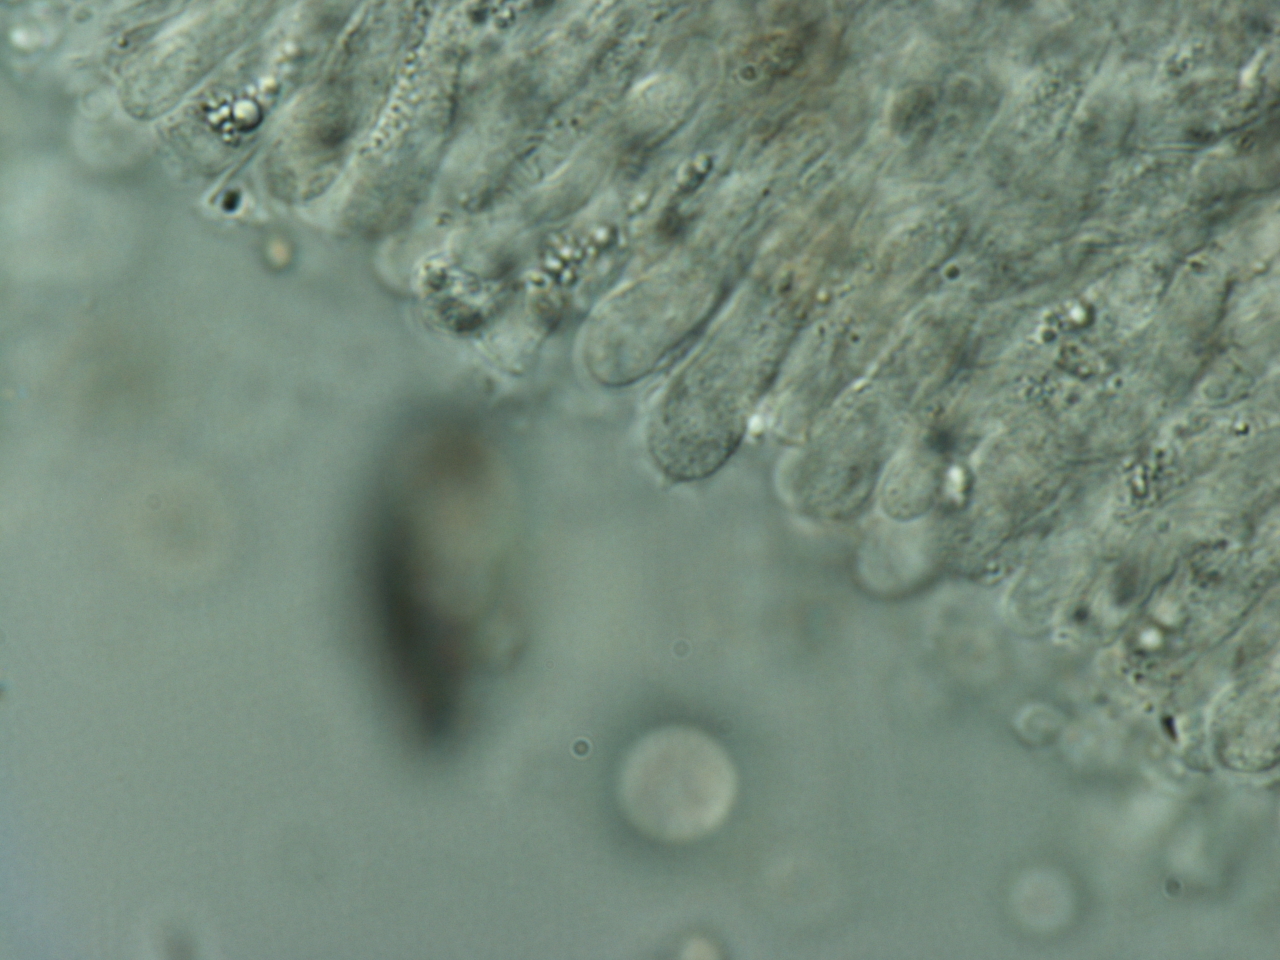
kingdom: Fungi
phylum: Basidiomycota
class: Agaricomycetes
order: Agaricales
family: Hygrophoraceae
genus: Lichenomphalia
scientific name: Lichenomphalia meridionalis
